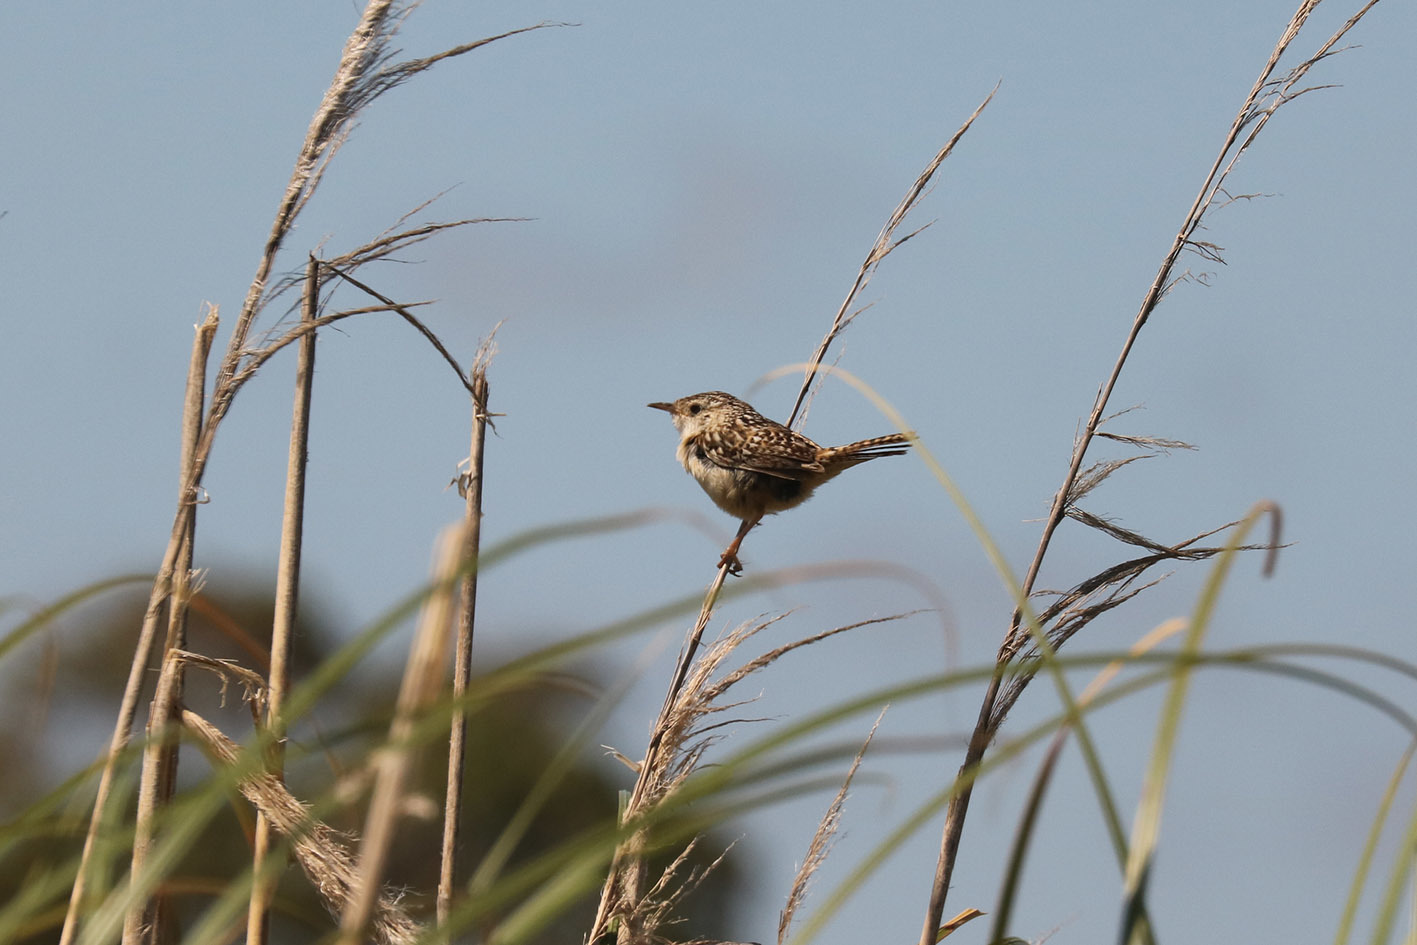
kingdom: Animalia
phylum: Chordata
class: Aves
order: Passeriformes
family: Troglodytidae
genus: Cistothorus
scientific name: Cistothorus platensis
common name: Sedge wren
